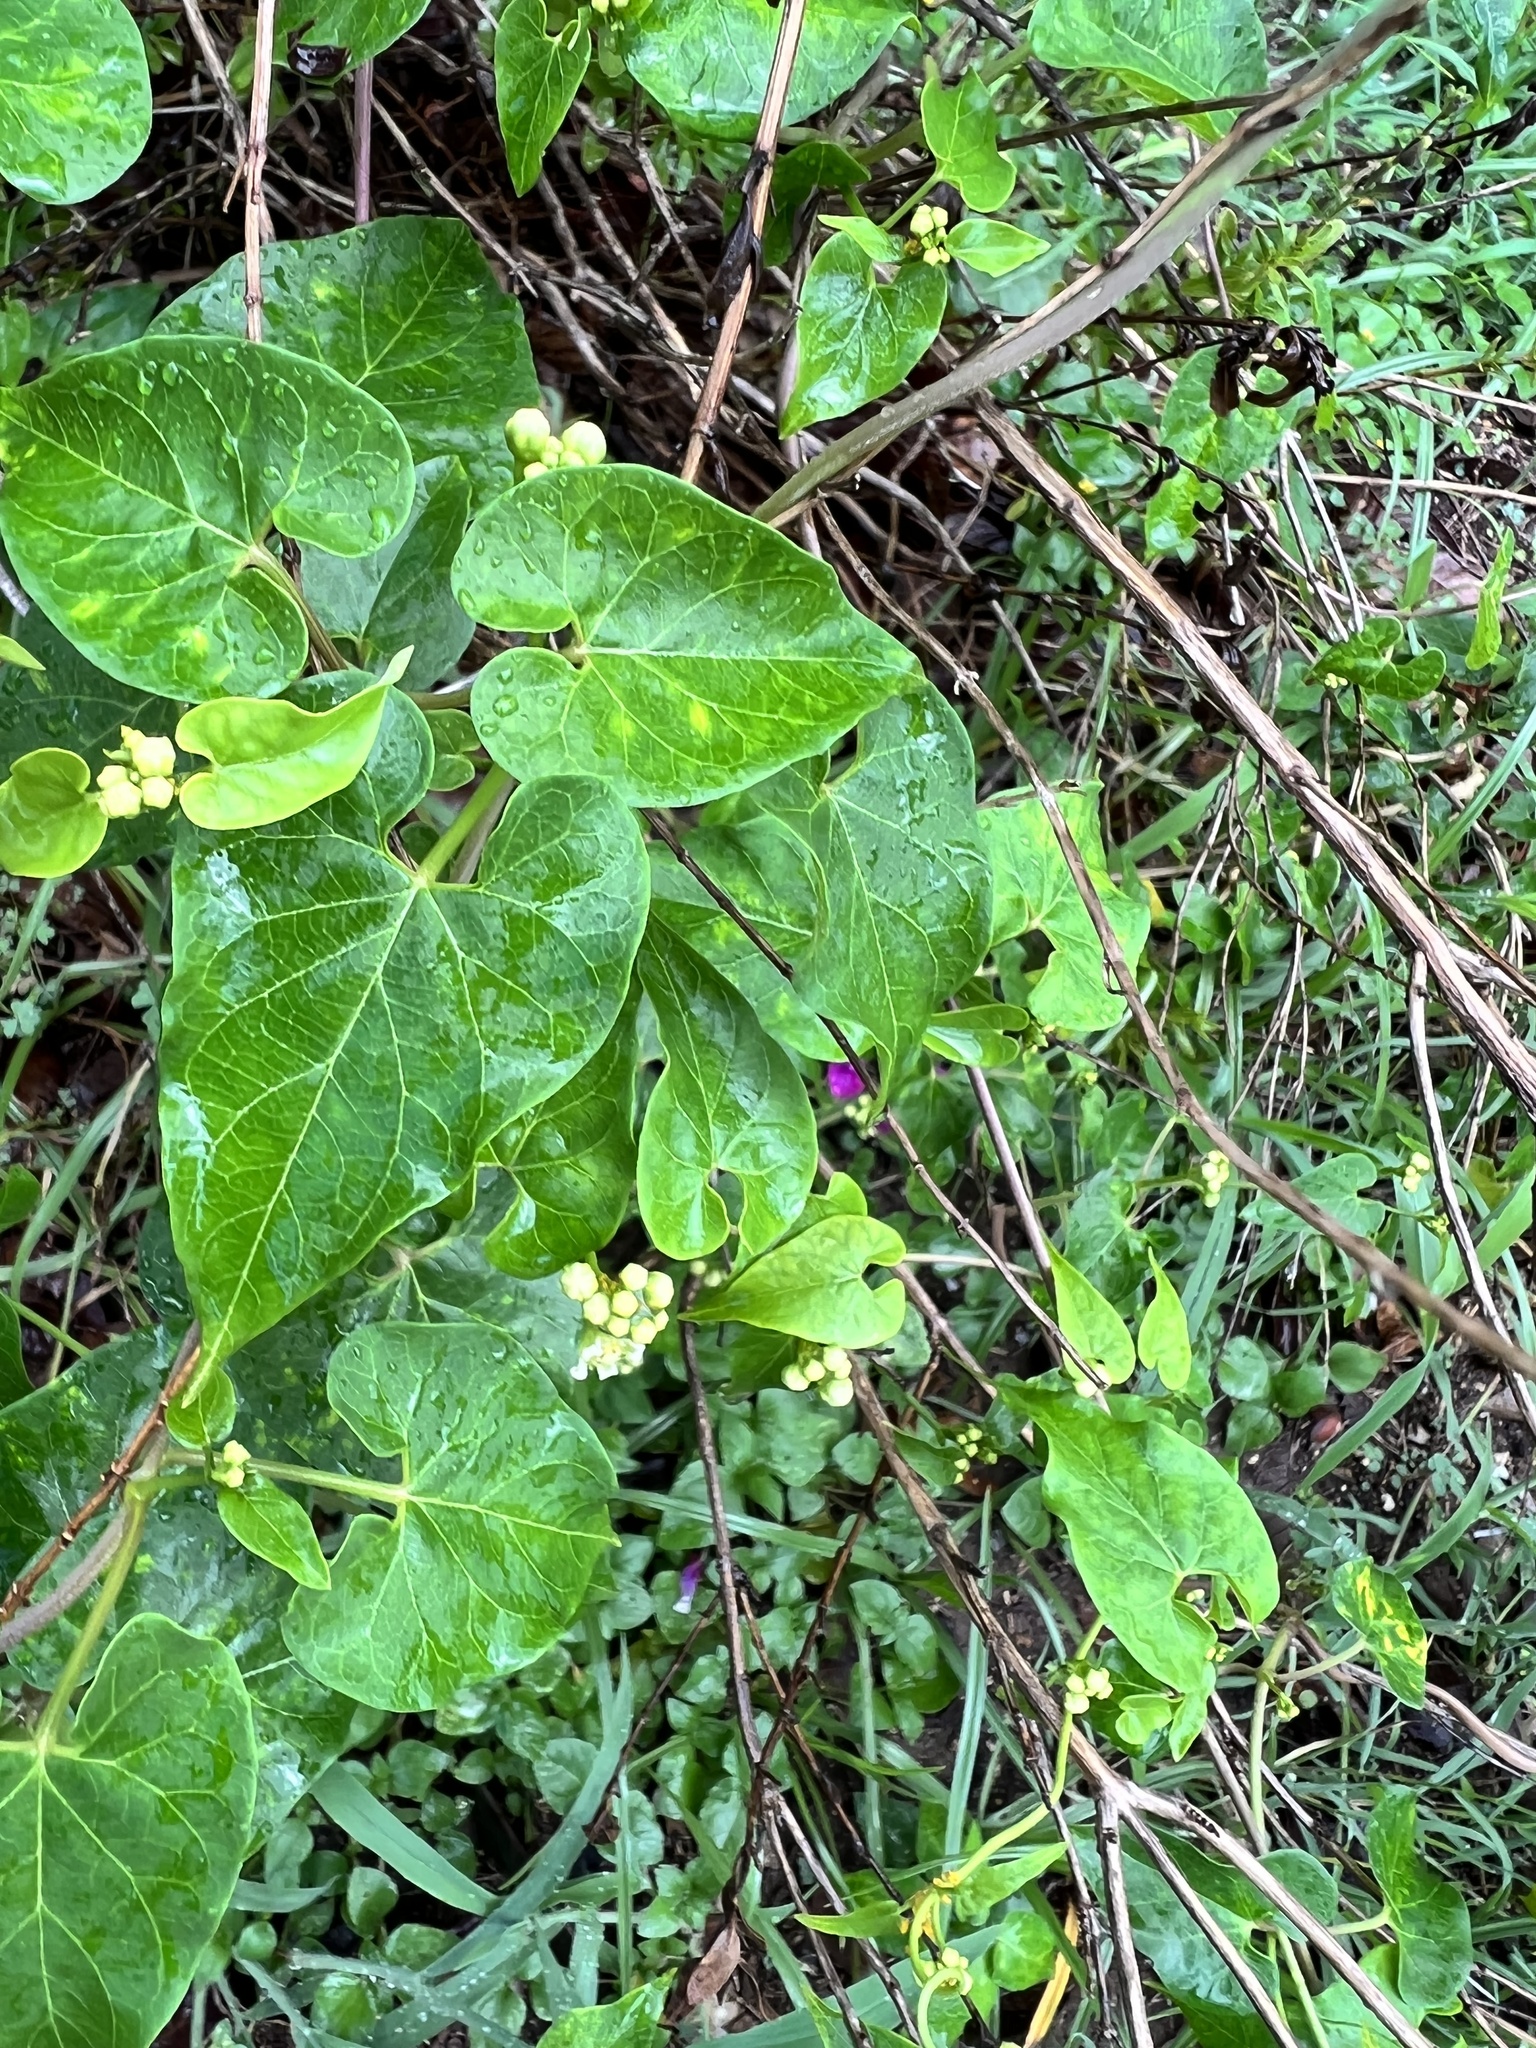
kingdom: Plantae
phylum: Tracheophyta
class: Magnoliopsida
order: Gentianales
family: Apocynaceae
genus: Cynanchum
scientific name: Cynanchum racemosum
